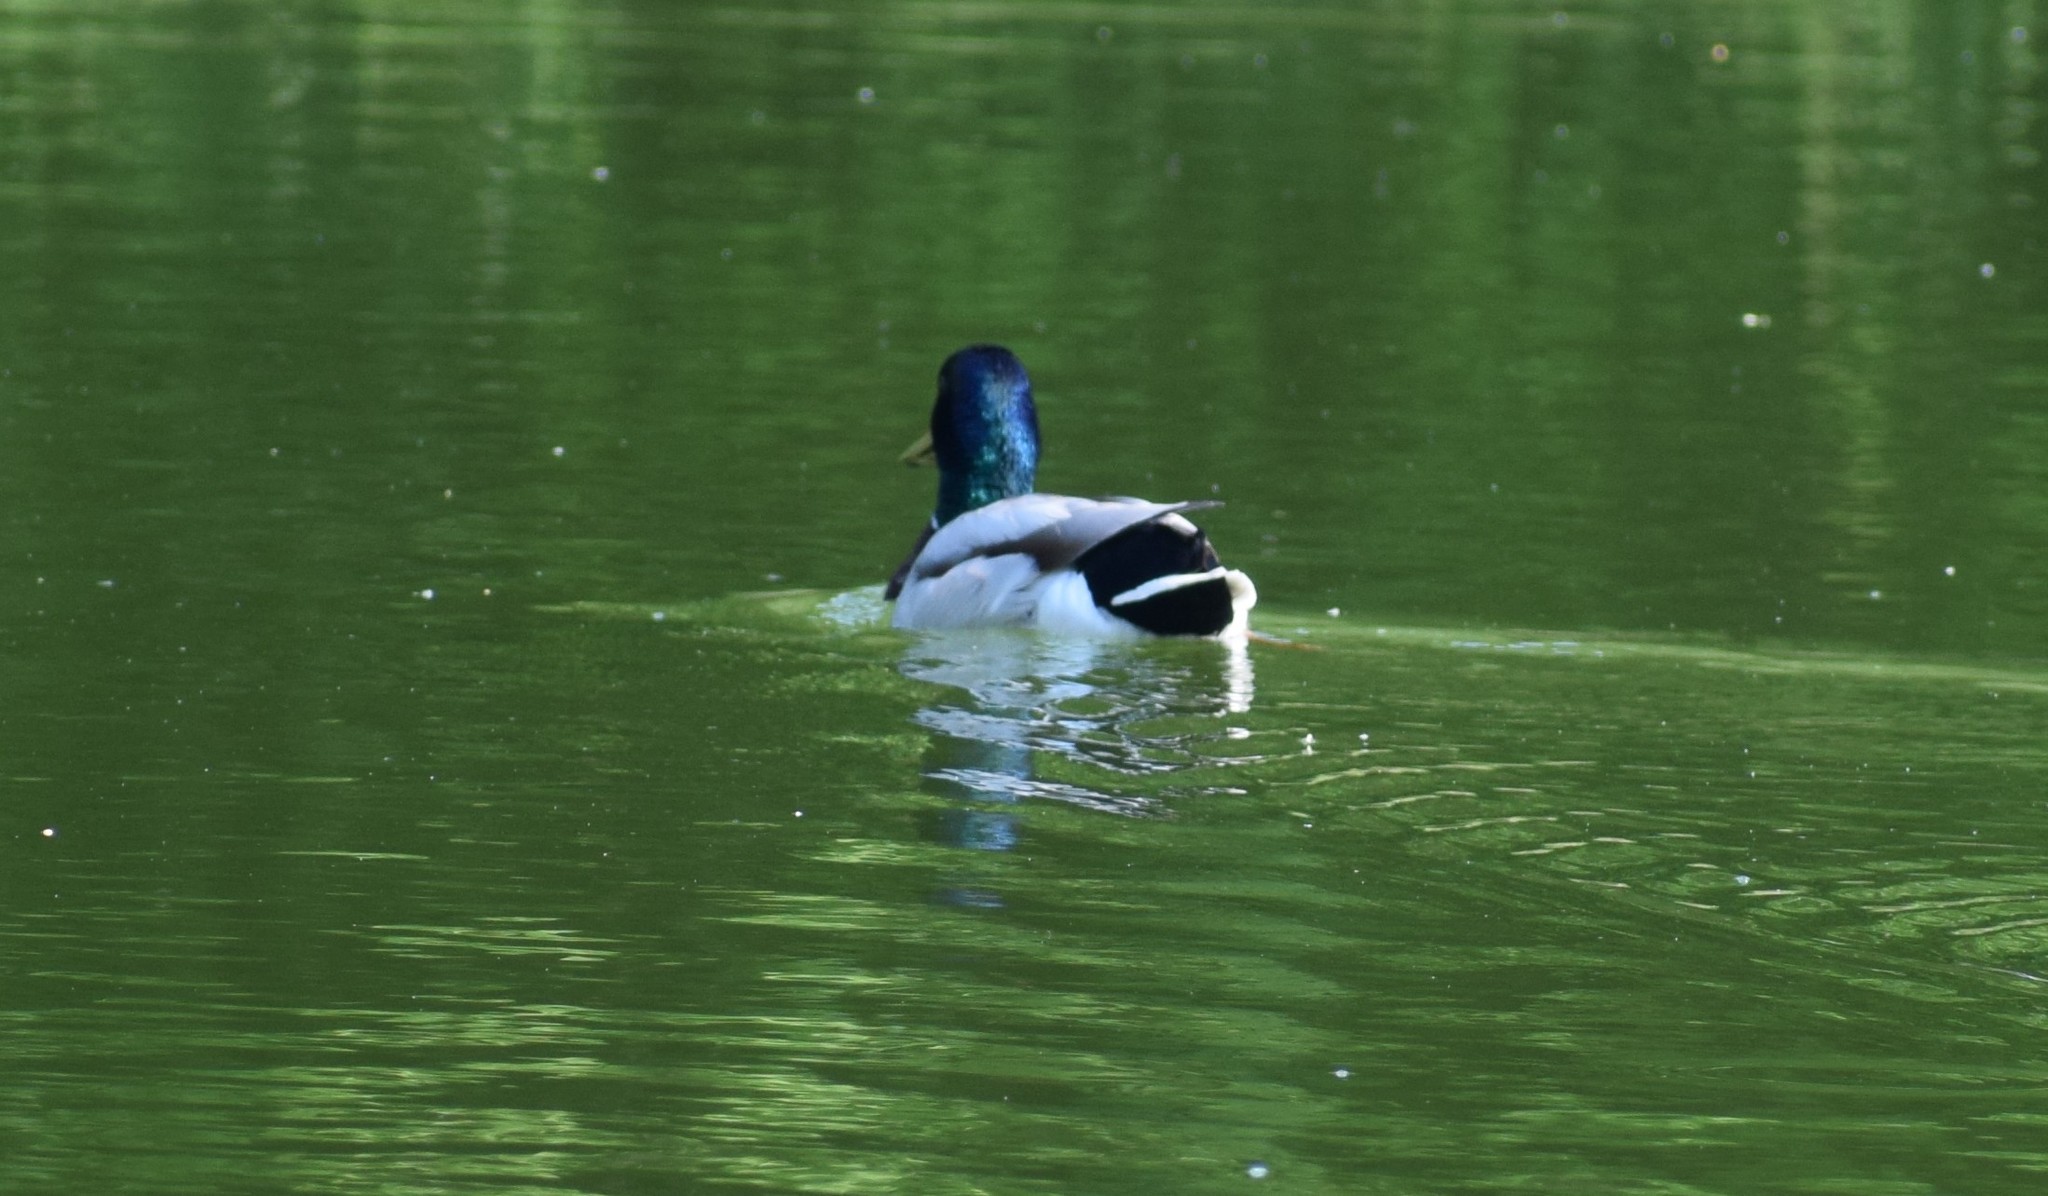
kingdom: Animalia
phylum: Chordata
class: Aves
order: Anseriformes
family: Anatidae
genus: Anas
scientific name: Anas platyrhynchos
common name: Mallard
